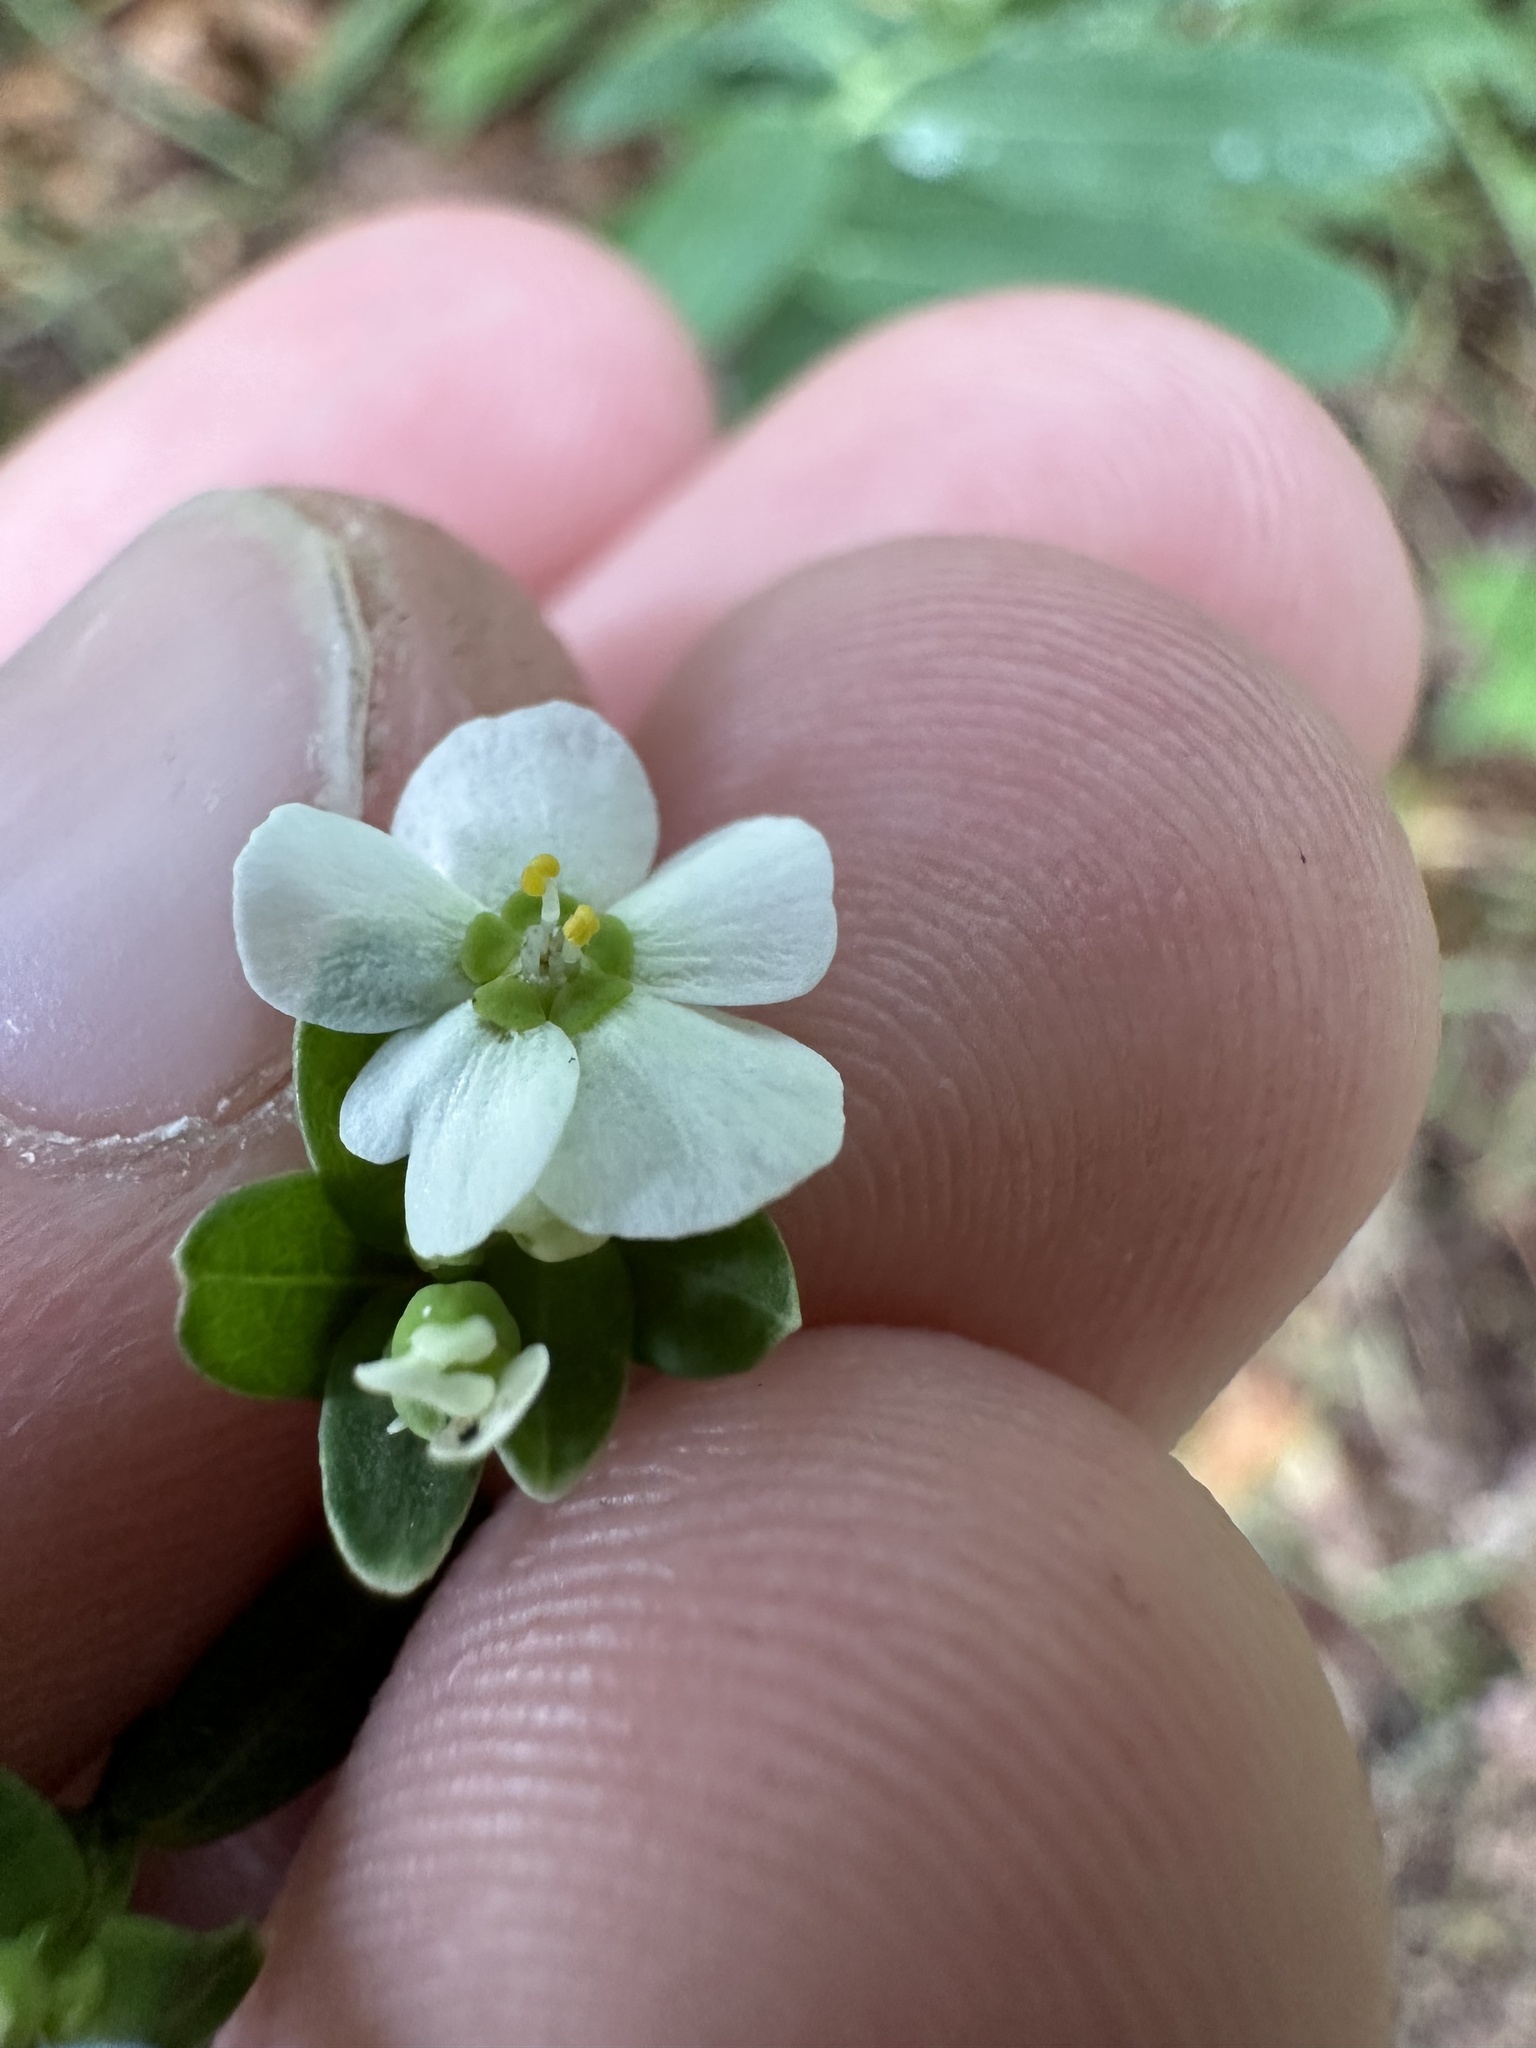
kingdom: Plantae
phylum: Tracheophyta
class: Magnoliopsida
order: Malpighiales
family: Euphorbiaceae
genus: Euphorbia
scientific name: Euphorbia corollata
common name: Flowering spurge
